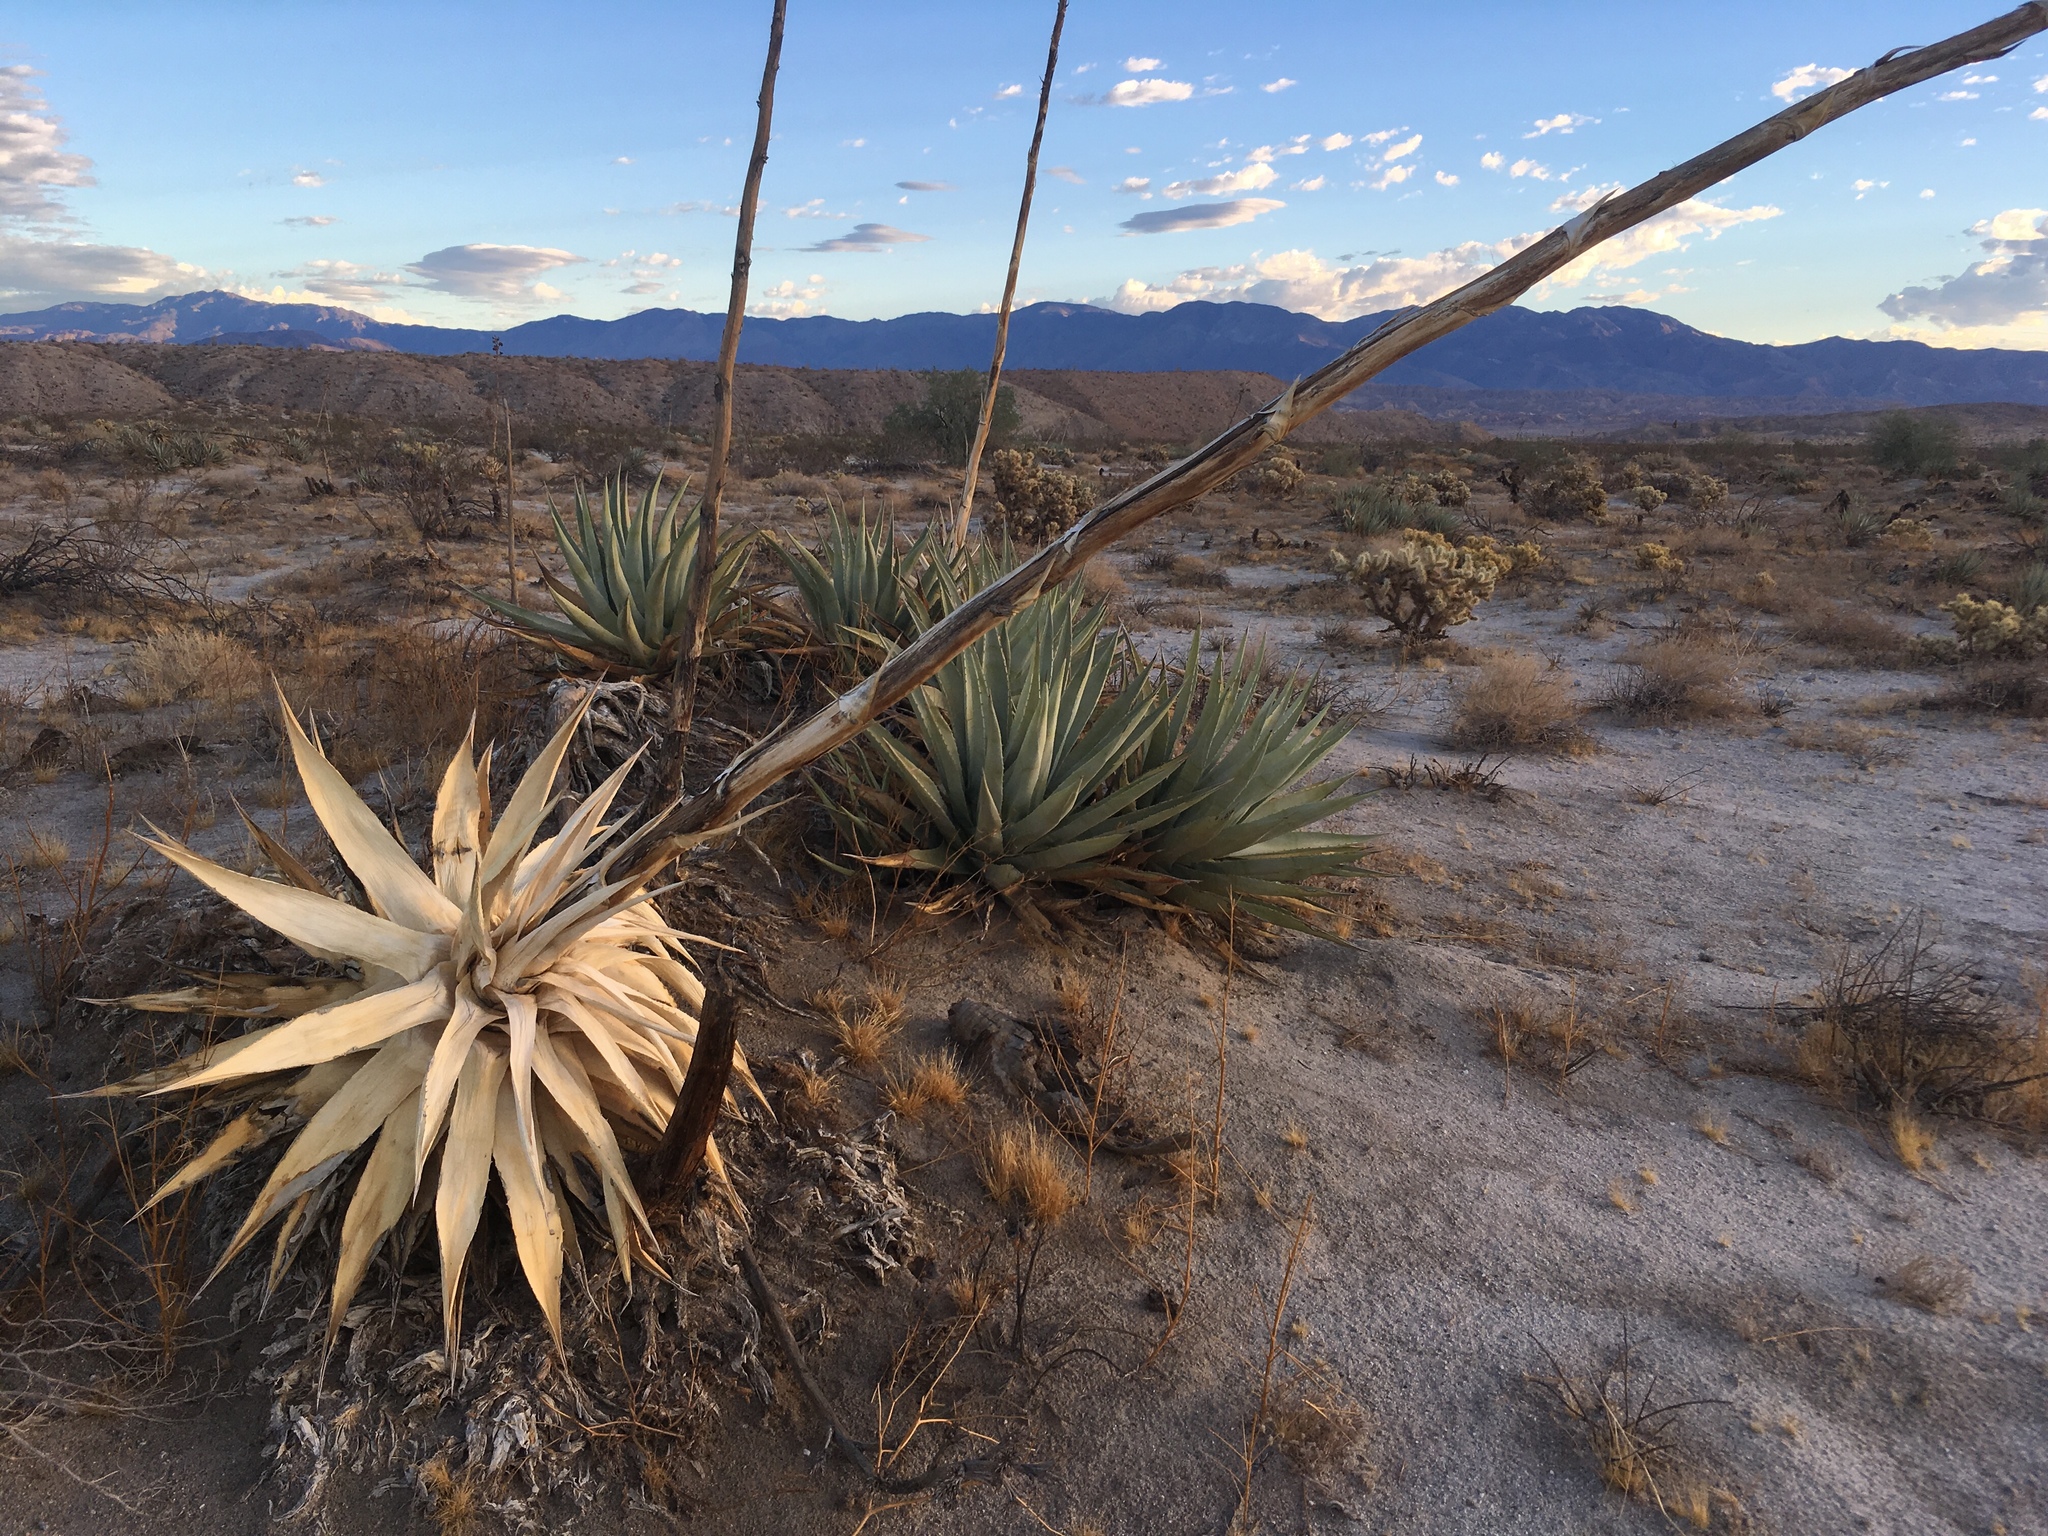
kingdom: Plantae
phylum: Tracheophyta
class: Liliopsida
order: Asparagales
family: Asparagaceae
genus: Agave
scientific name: Agave deserti
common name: Desert agave
